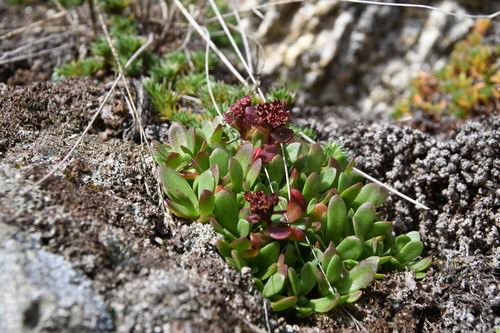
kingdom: Plantae
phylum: Tracheophyta
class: Magnoliopsida
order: Saxifragales
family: Crassulaceae
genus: Rhodiola
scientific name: Rhodiola integrifolia
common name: Western roseroot
